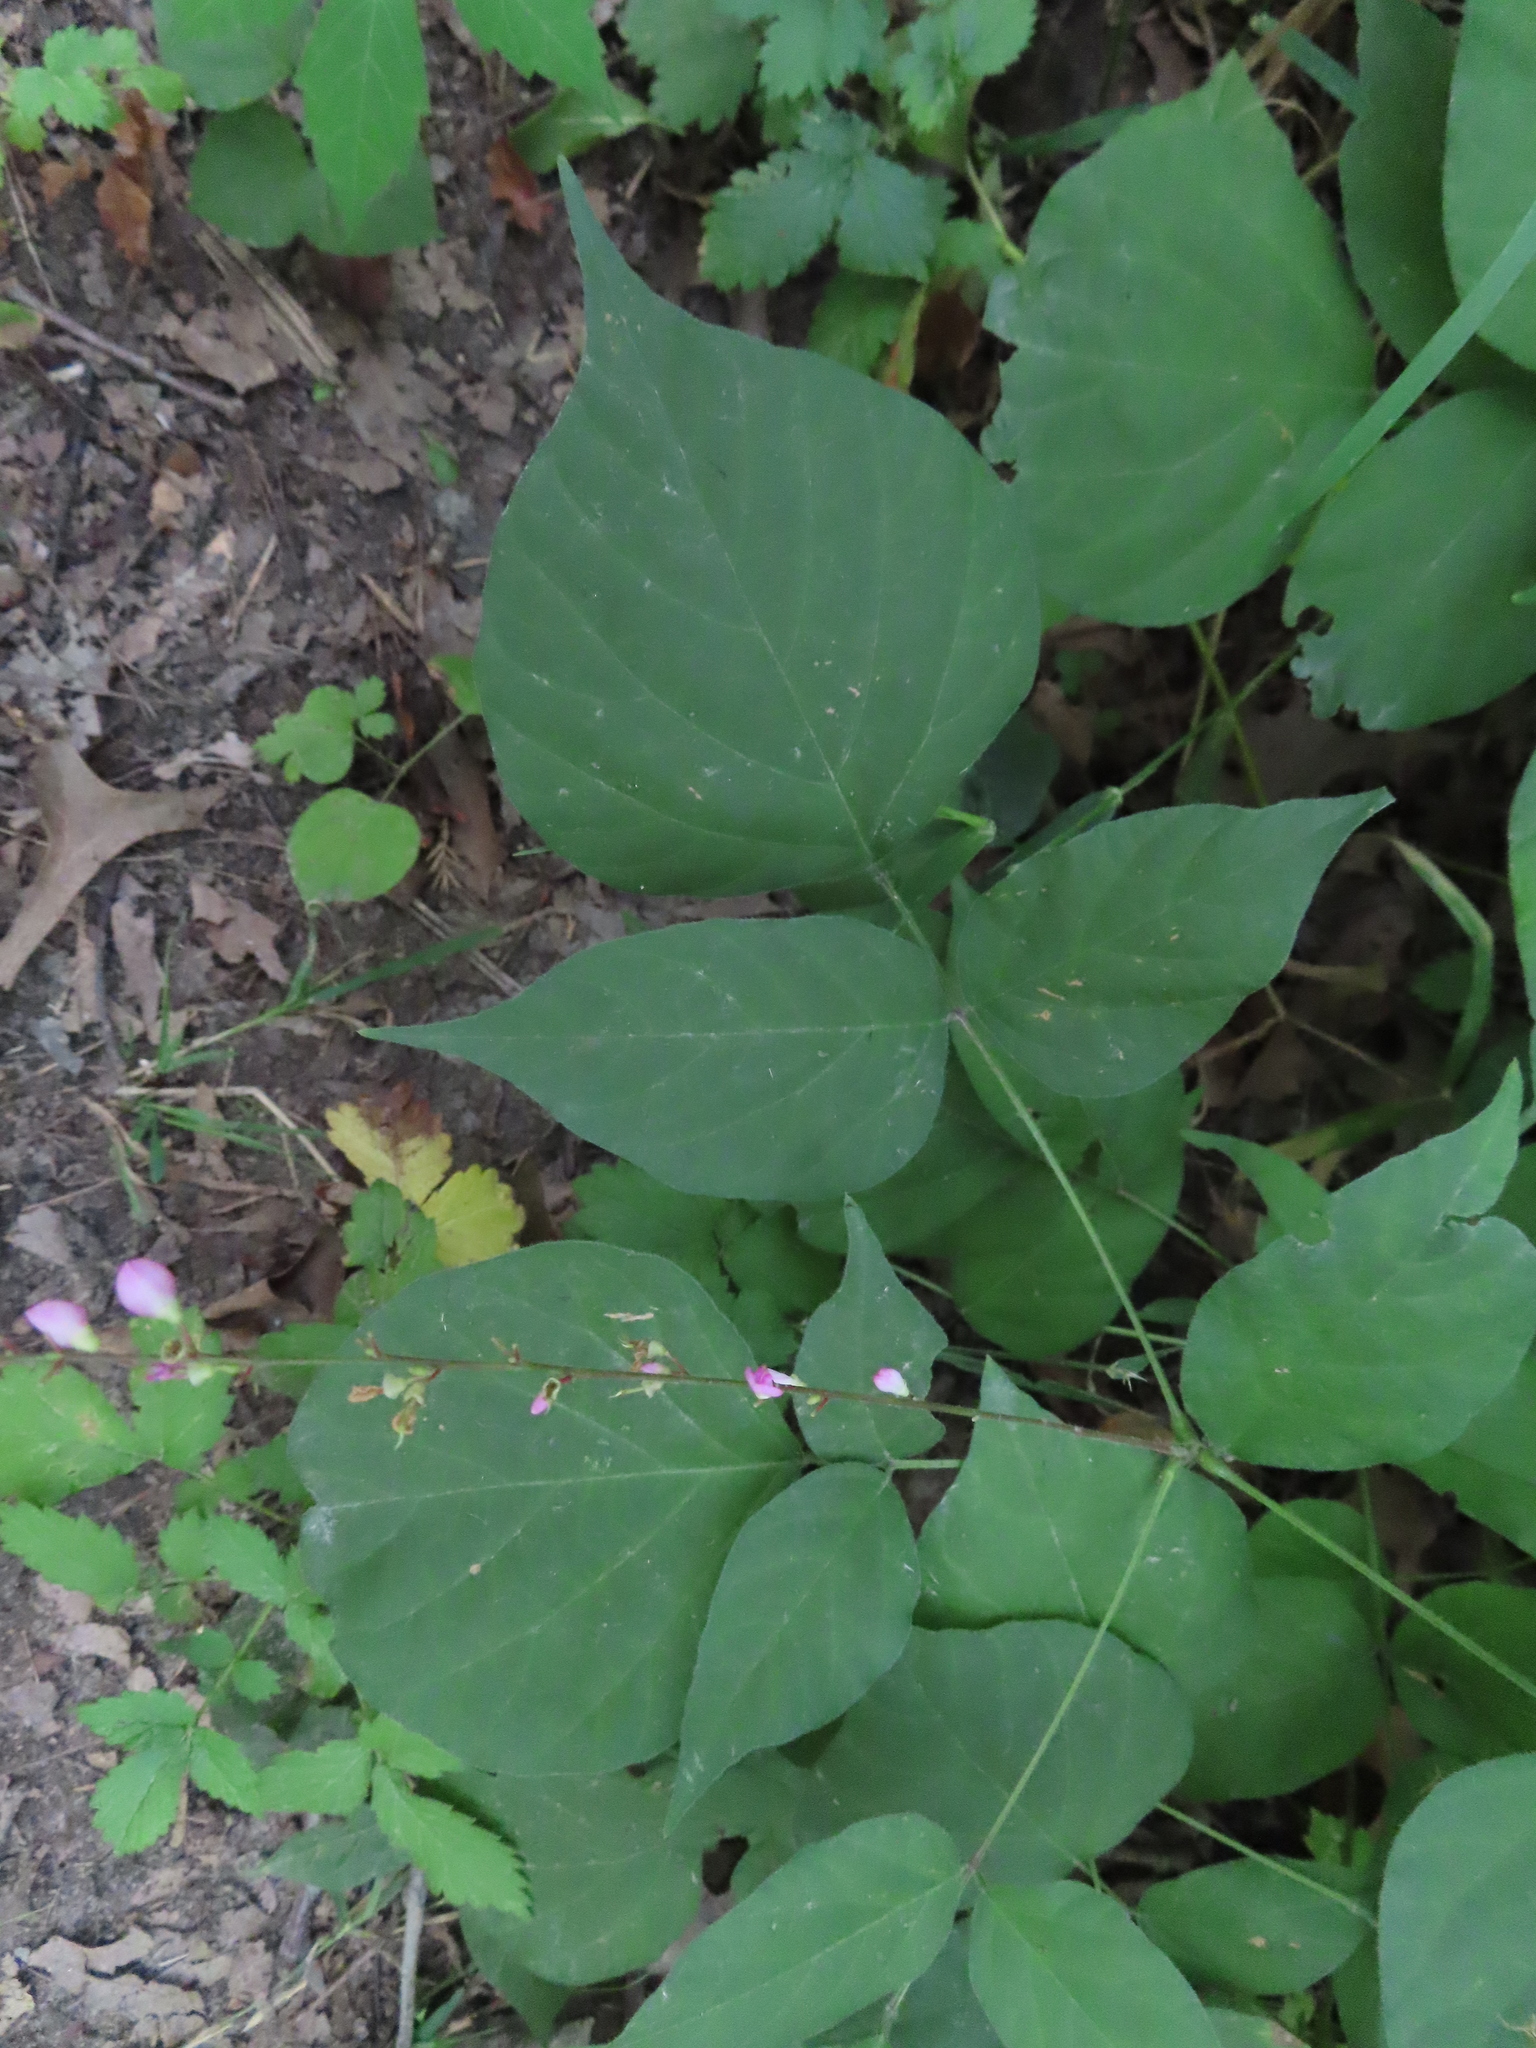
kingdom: Plantae
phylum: Tracheophyta
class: Magnoliopsida
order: Fabales
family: Fabaceae
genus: Hylodesmum
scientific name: Hylodesmum glutinosum
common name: Clustered-leaved tick-trefoil
